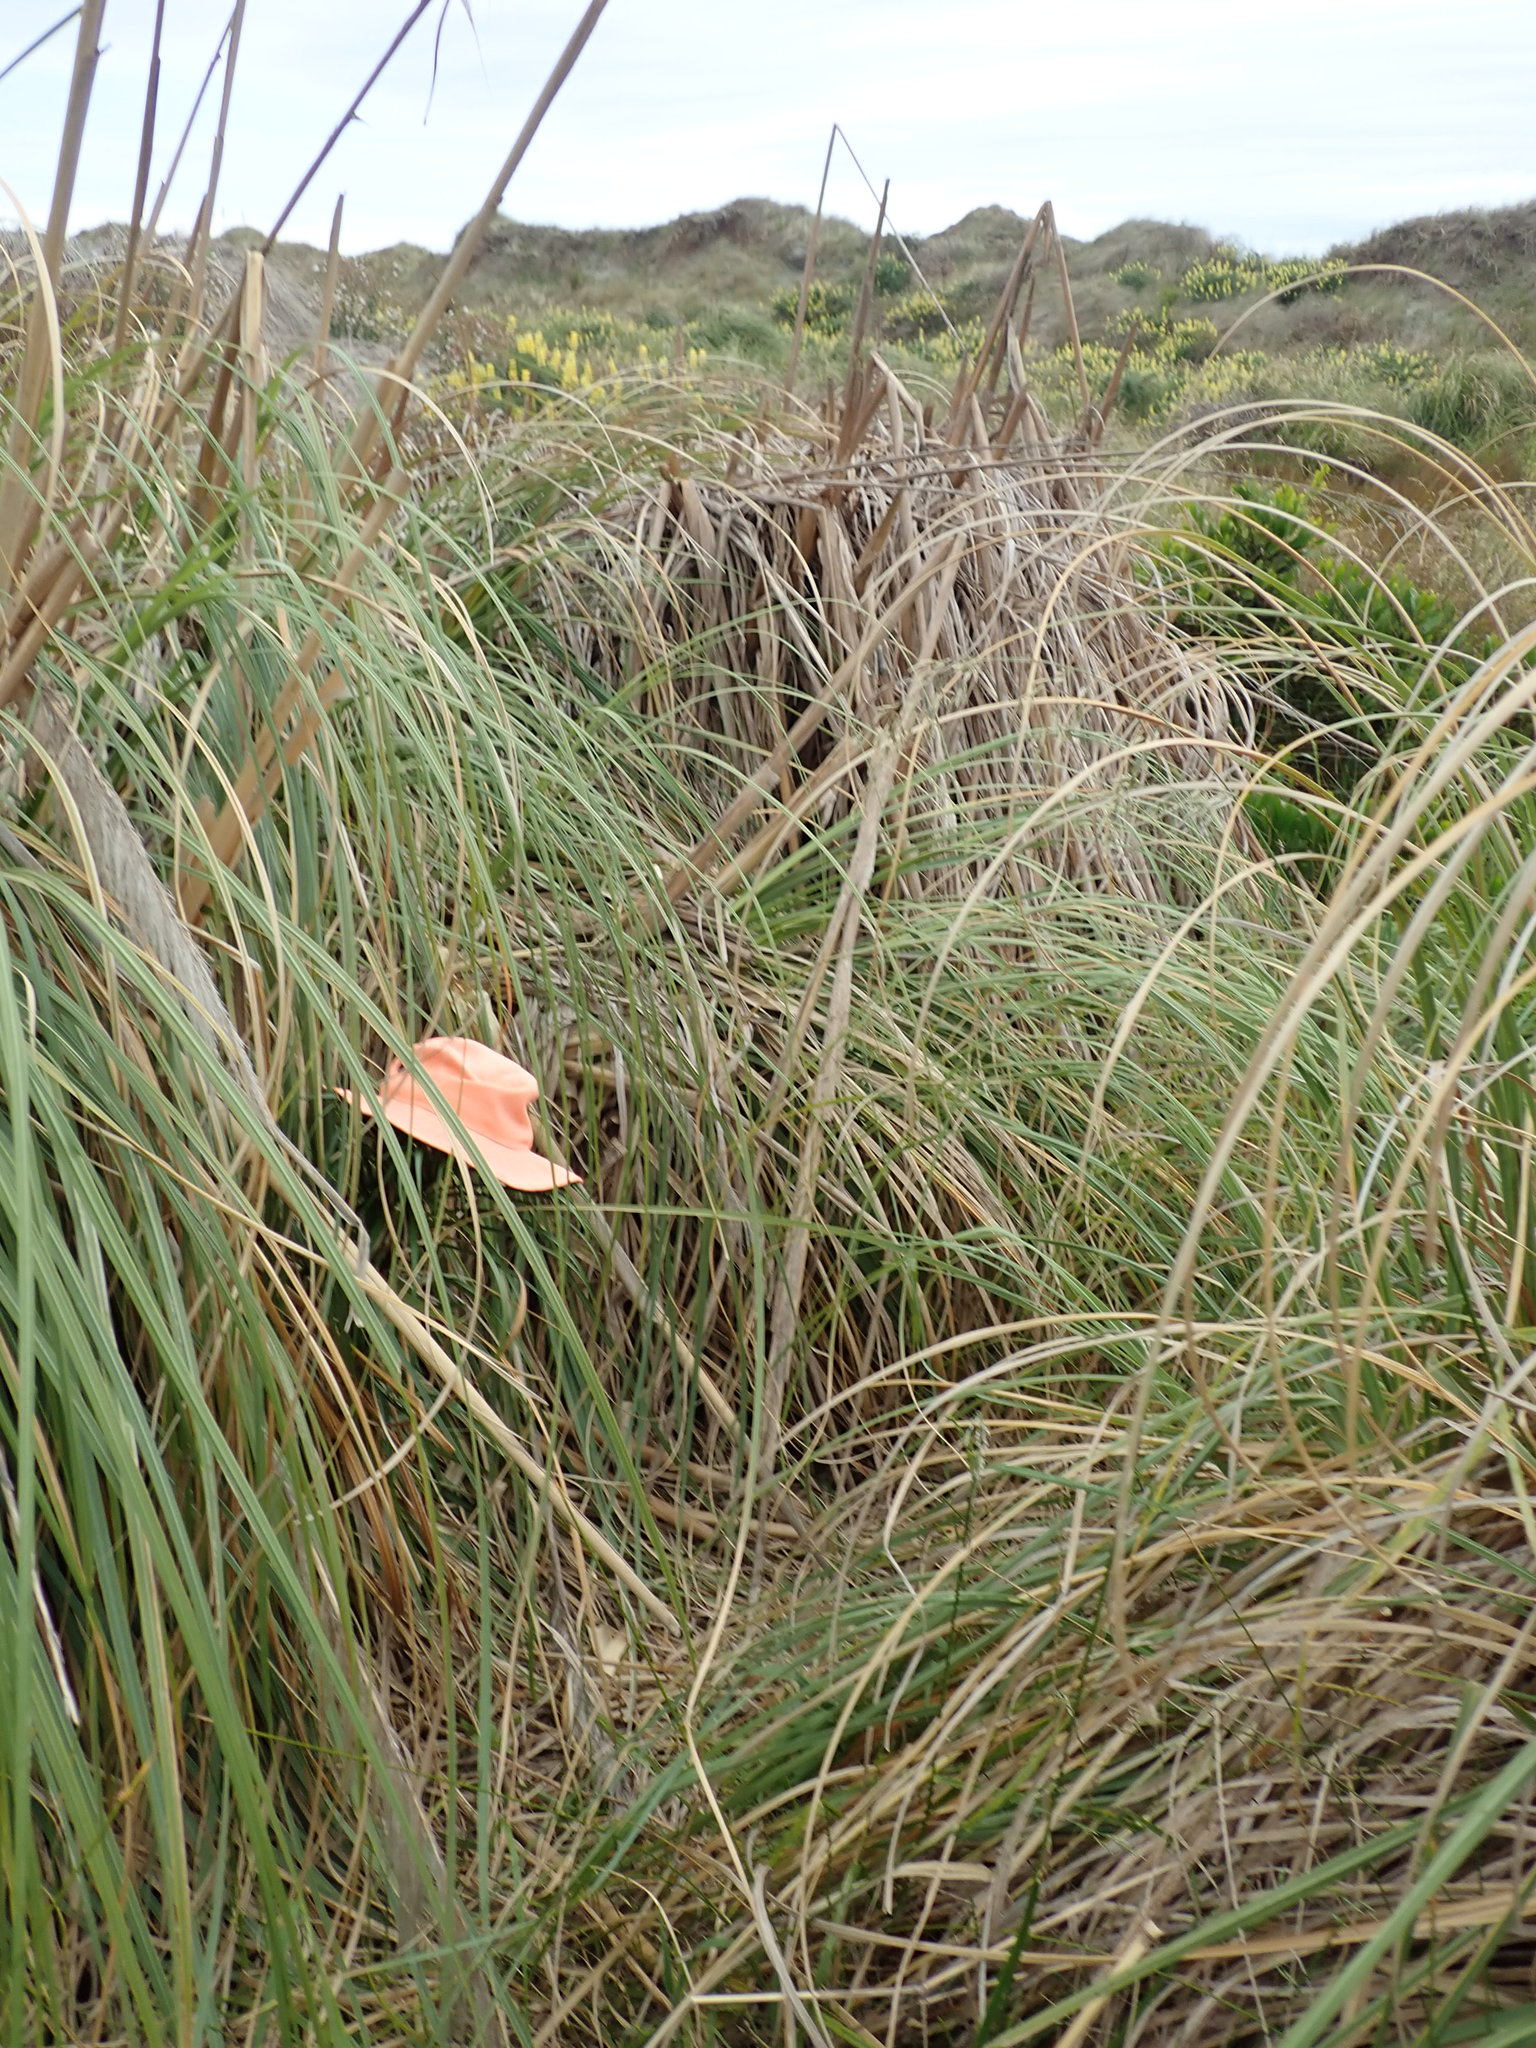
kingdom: Plantae
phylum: Tracheophyta
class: Liliopsida
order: Liliales
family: Liliaceae
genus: Lilium
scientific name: Lilium formosanum
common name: Formosa lily
